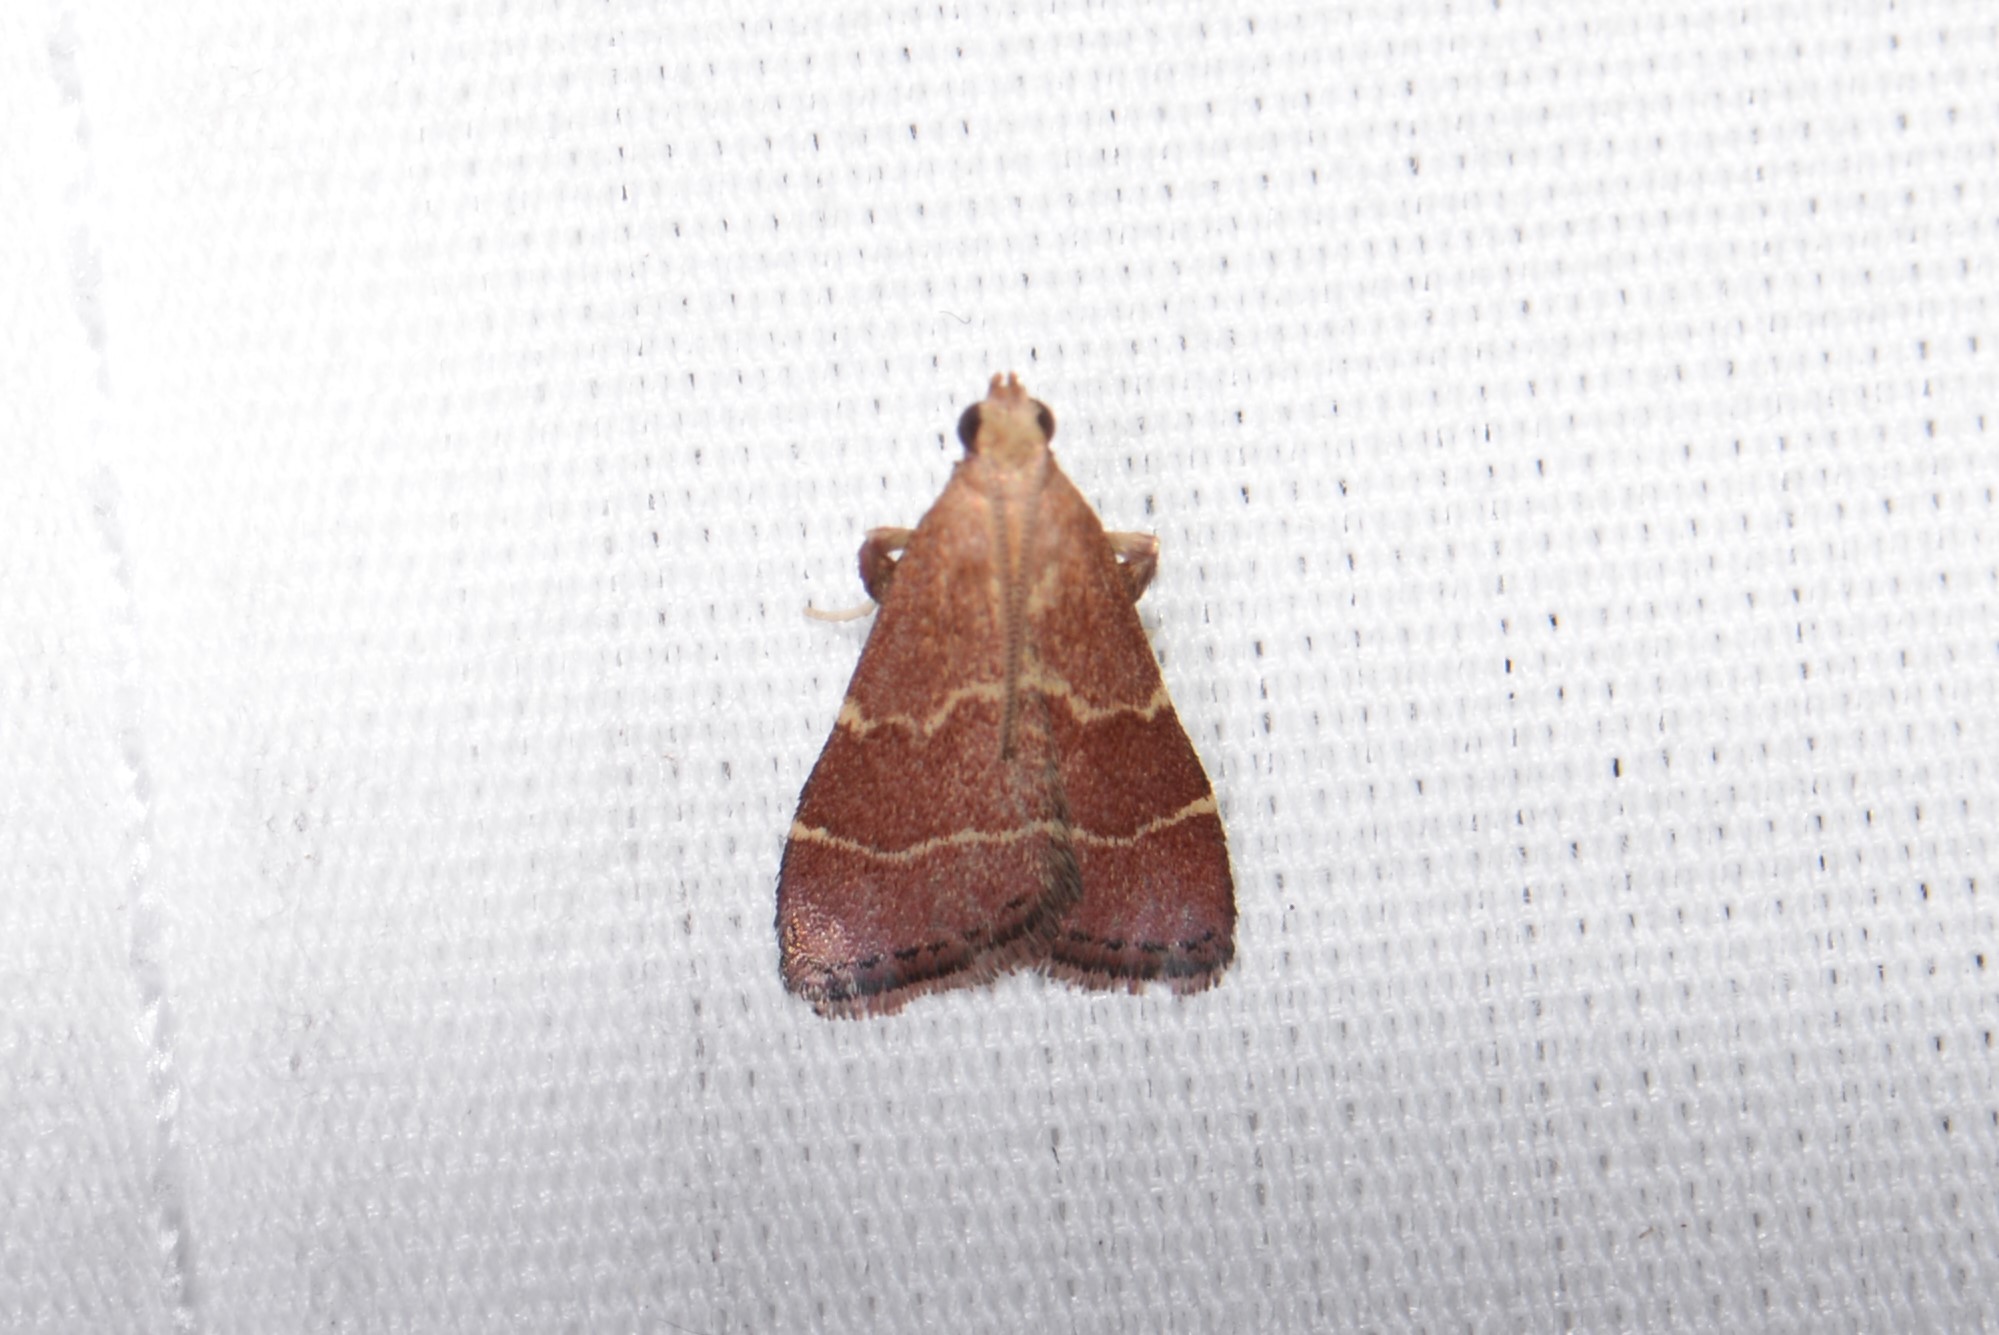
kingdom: Animalia
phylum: Arthropoda
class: Insecta
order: Lepidoptera
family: Pyralidae
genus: Arta
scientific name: Arta statalis
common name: Posturing arta moth
